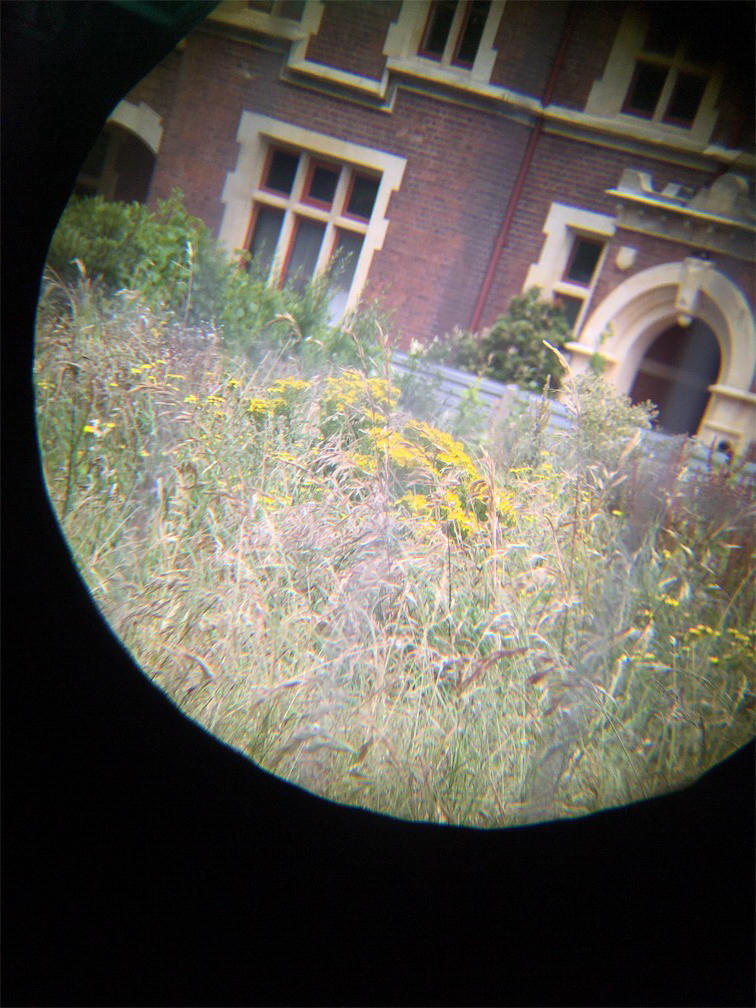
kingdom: Plantae
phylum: Tracheophyta
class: Magnoliopsida
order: Asterales
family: Asteraceae
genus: Jacobaea
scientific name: Jacobaea vulgaris
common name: Stinking willie
